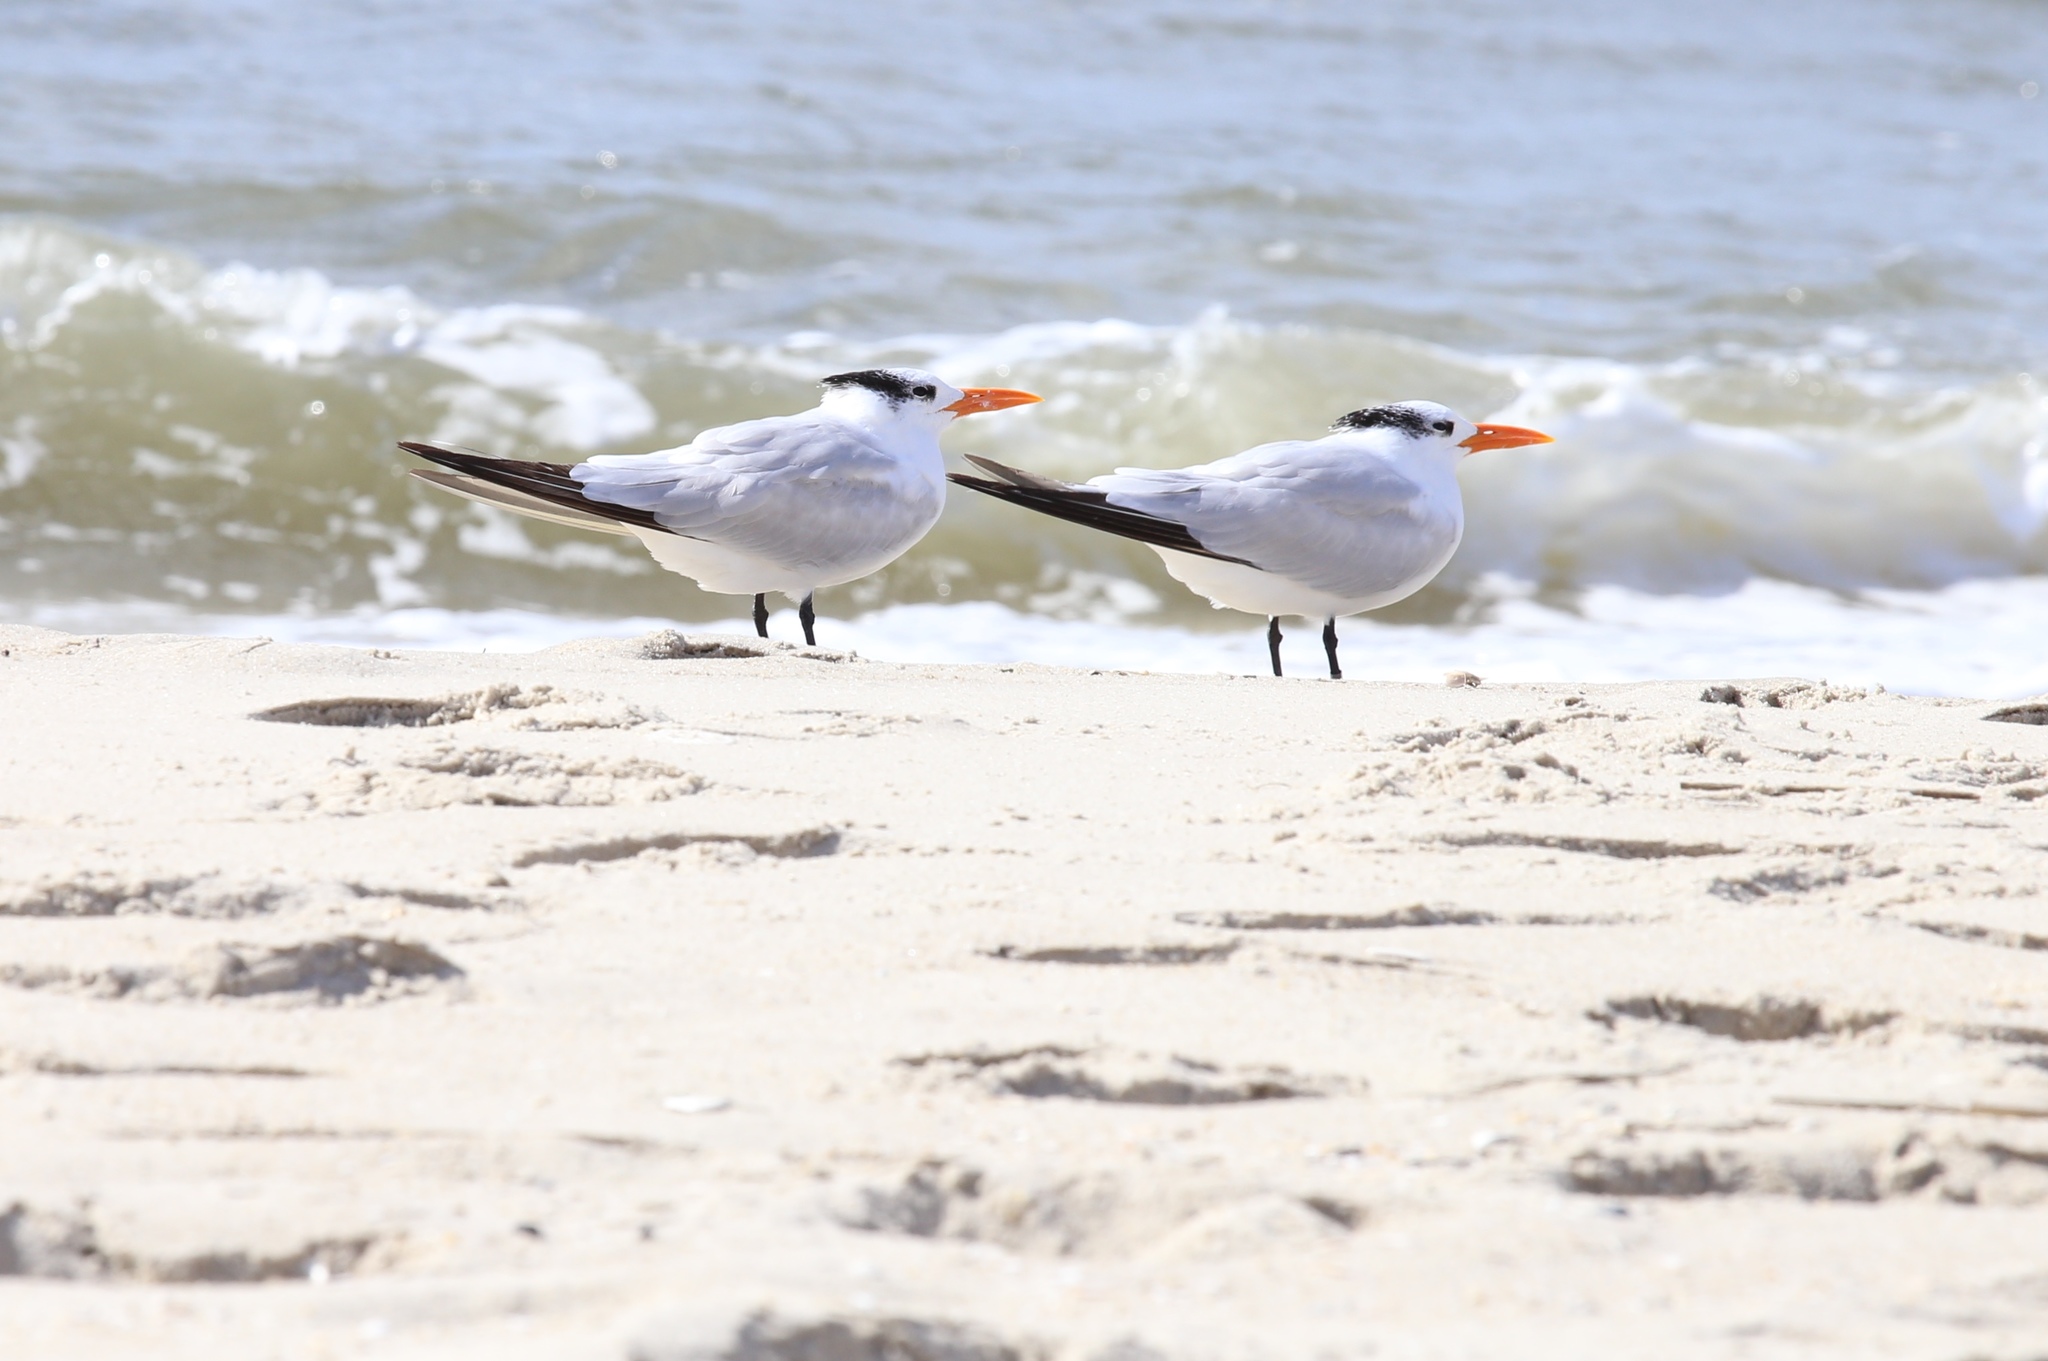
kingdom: Animalia
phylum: Chordata
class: Aves
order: Charadriiformes
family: Laridae
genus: Thalasseus
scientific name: Thalasseus maximus
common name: Royal tern
